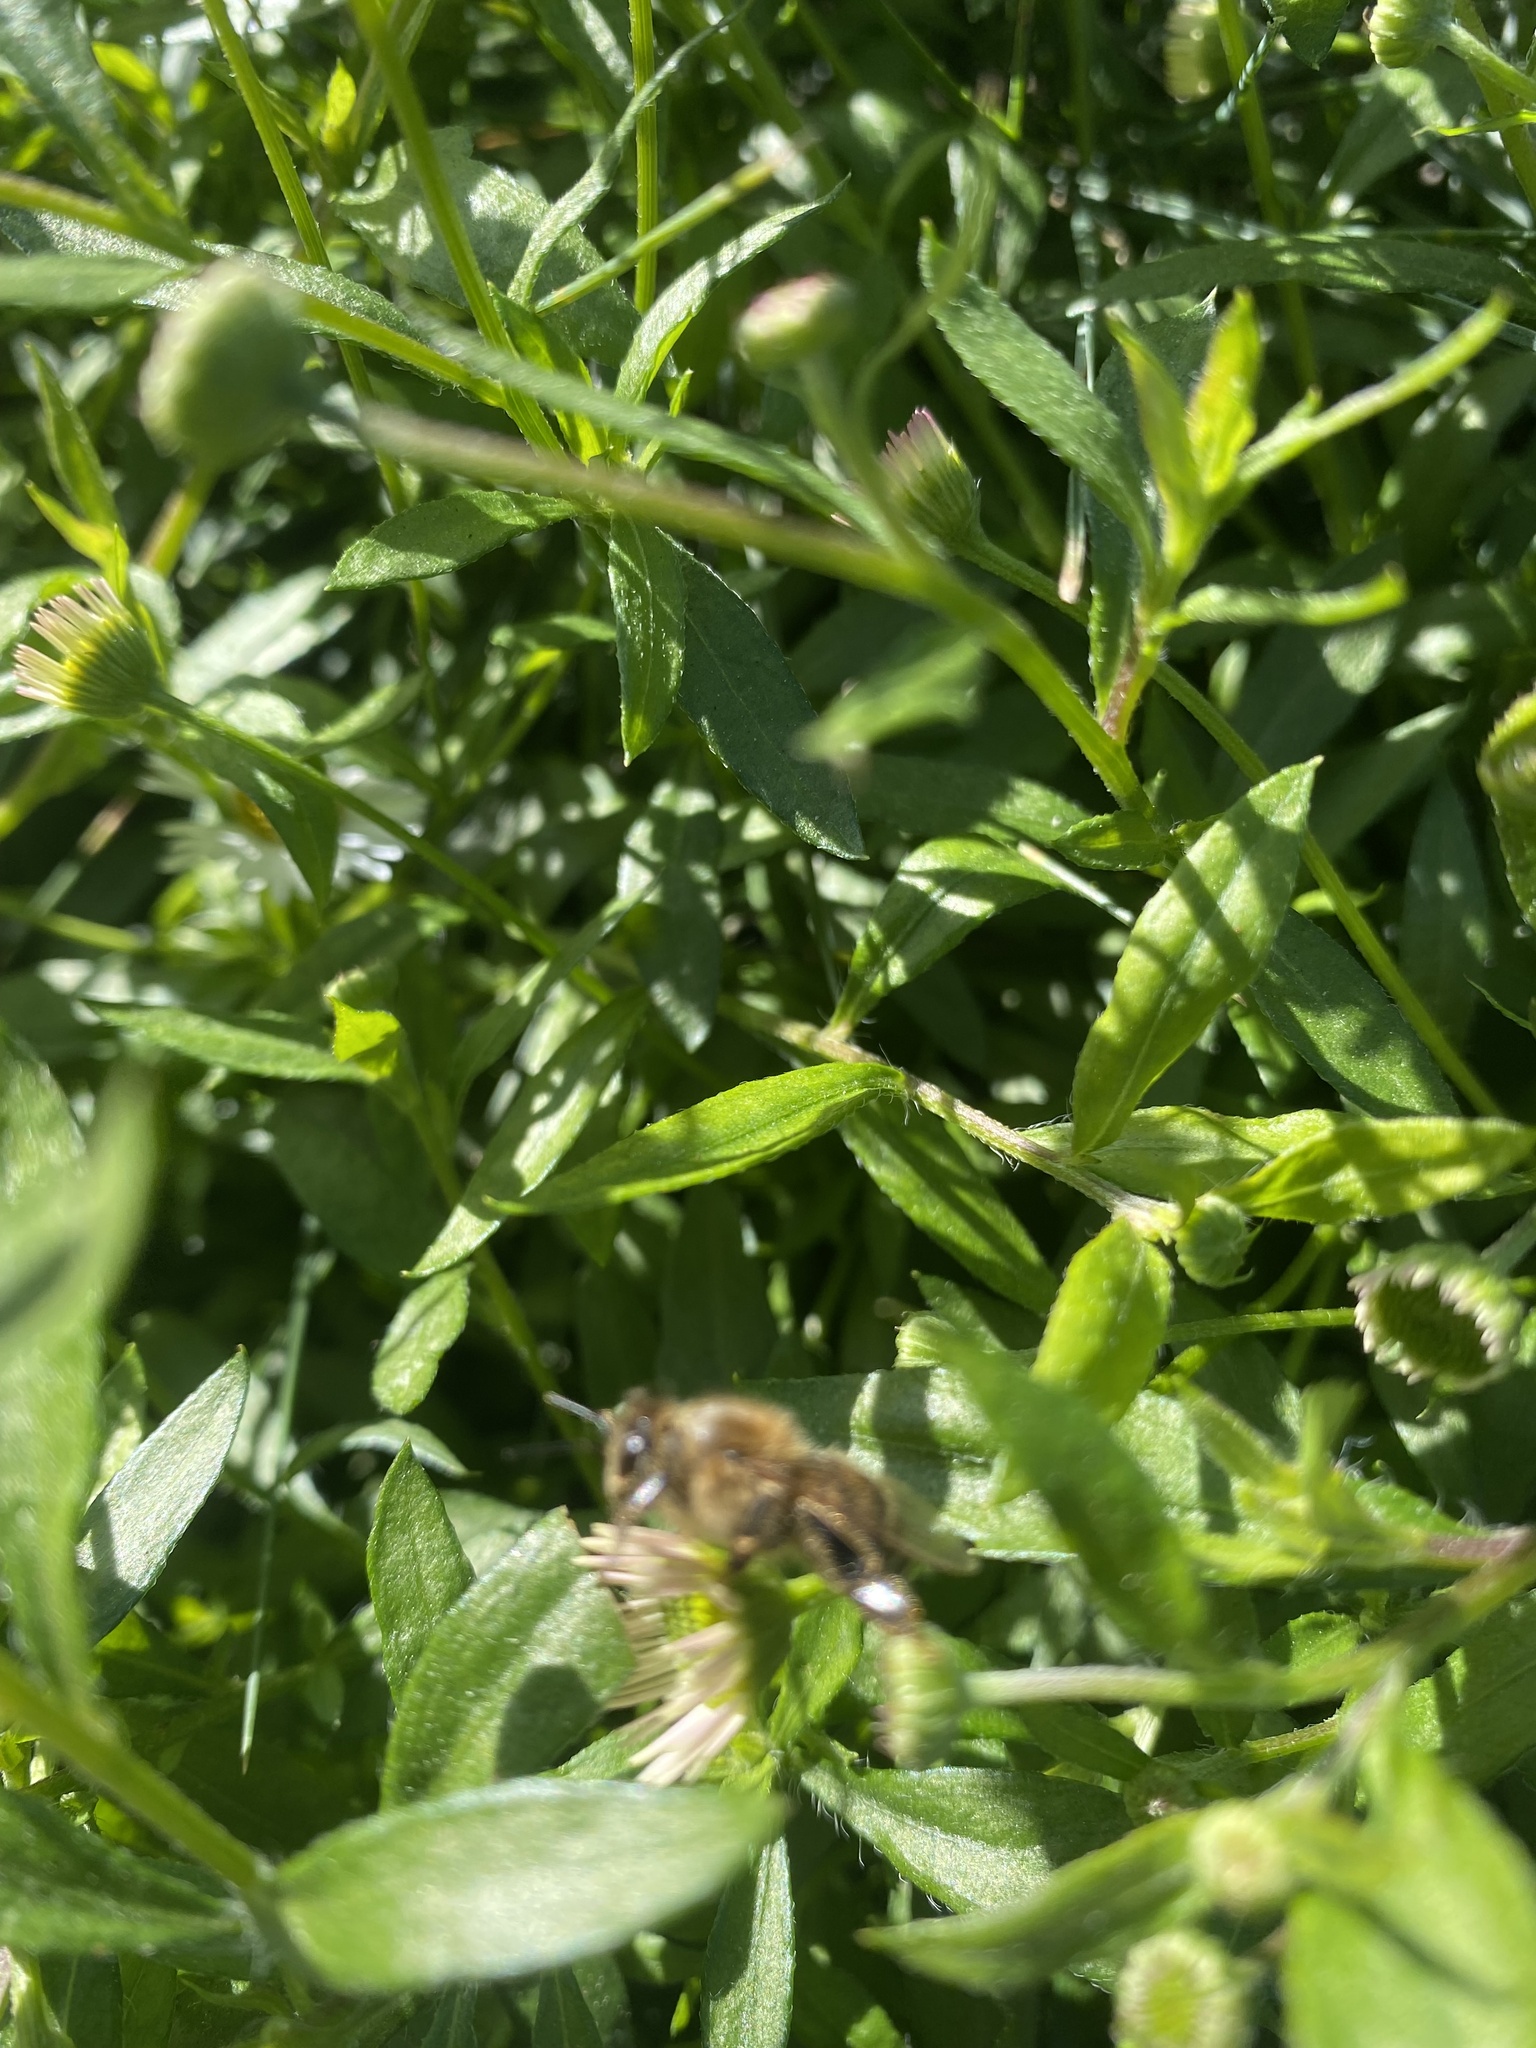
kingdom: Animalia
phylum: Arthropoda
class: Insecta
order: Hymenoptera
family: Apidae
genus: Apis
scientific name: Apis mellifera
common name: Honey bee
